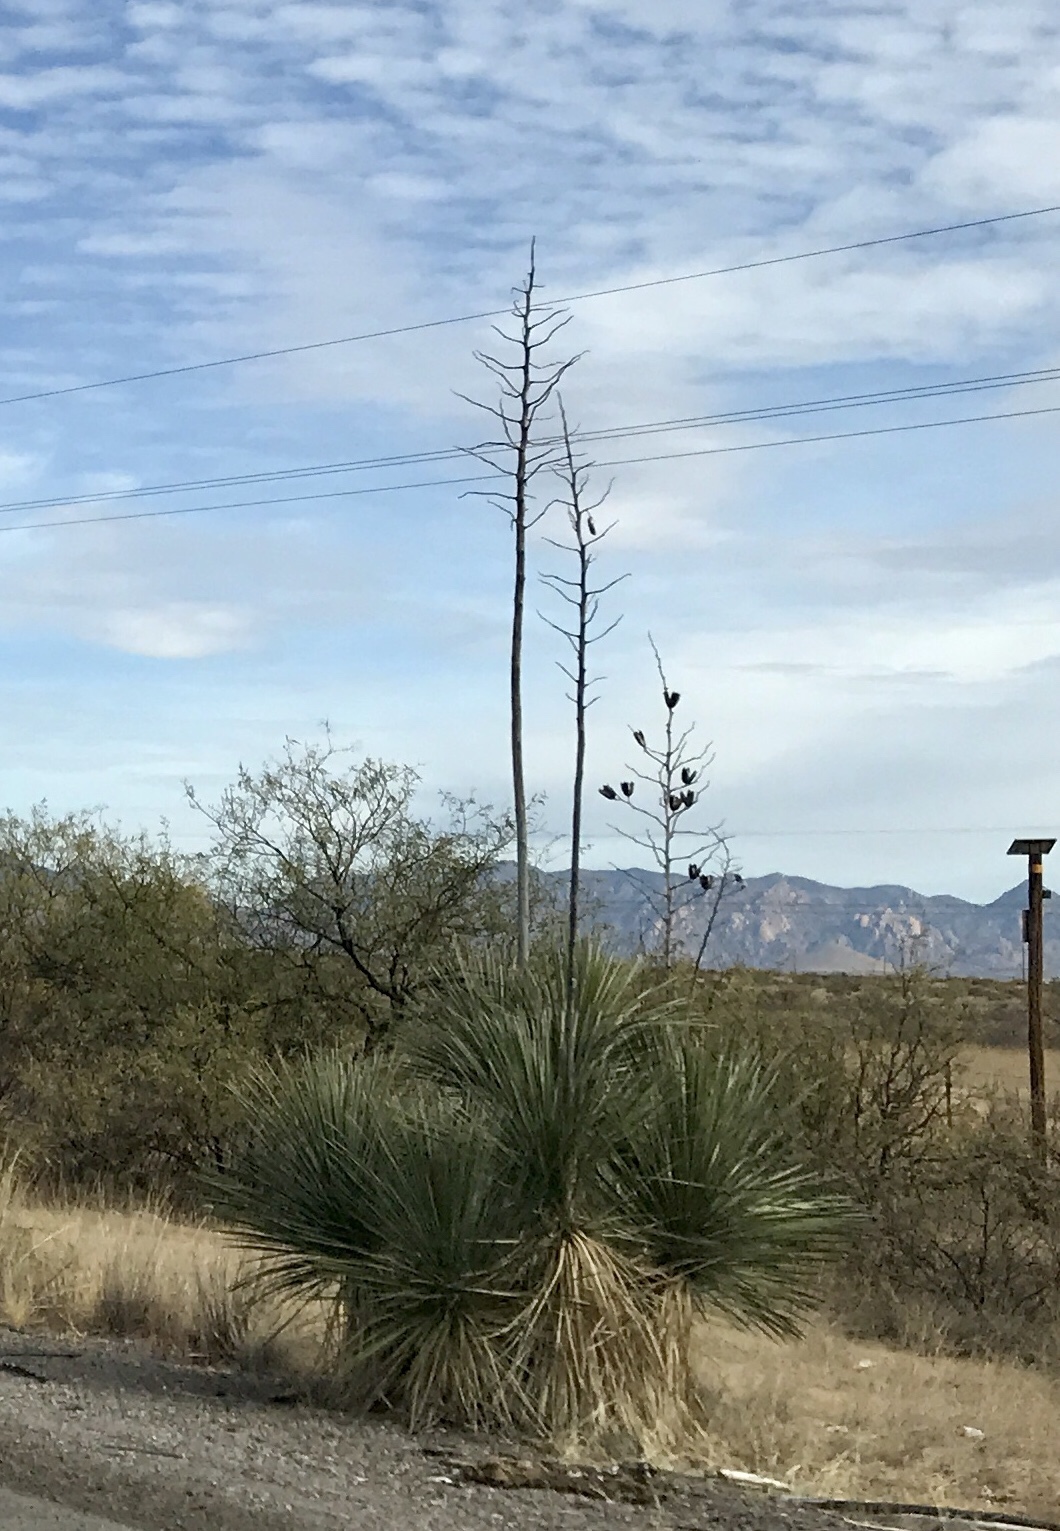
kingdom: Plantae
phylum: Tracheophyta
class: Liliopsida
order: Asparagales
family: Asparagaceae
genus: Yucca
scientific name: Yucca elata
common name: Palmella
